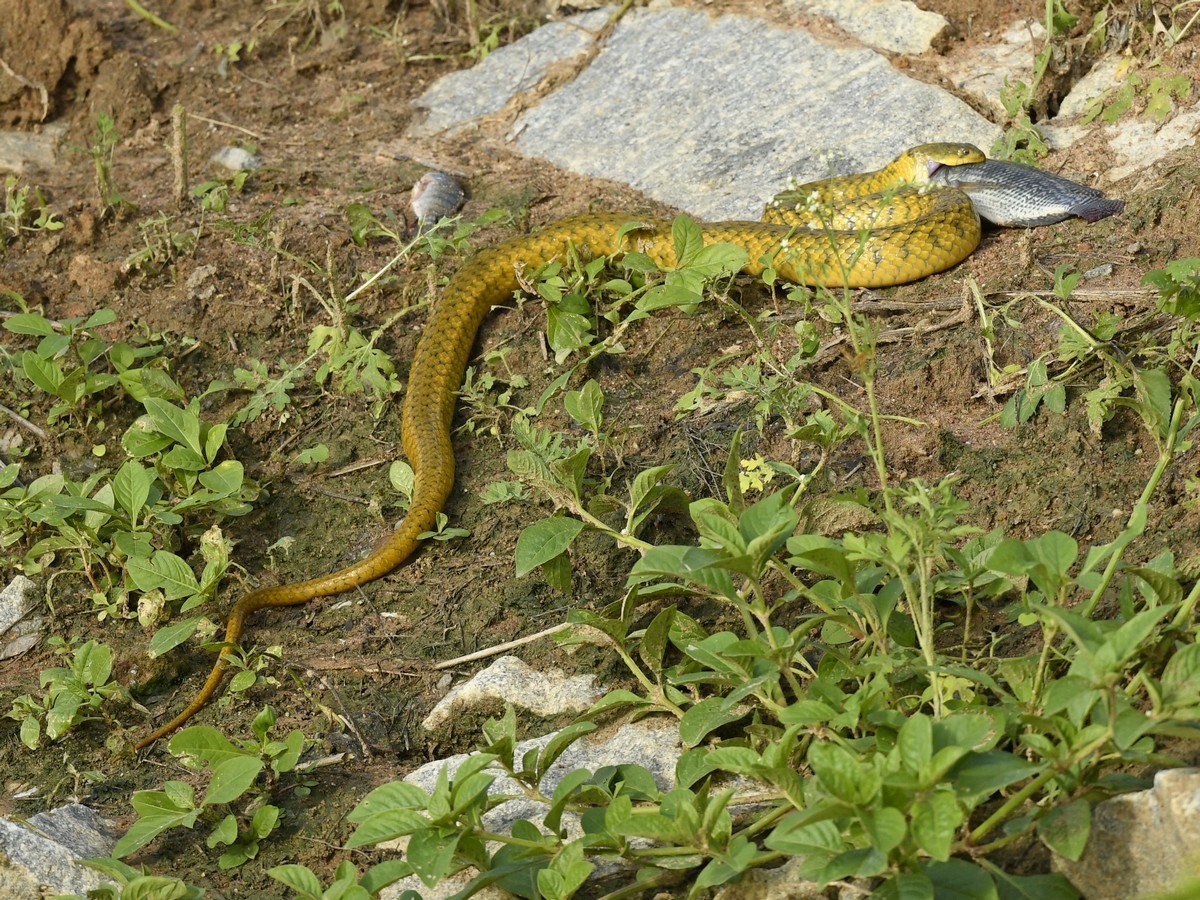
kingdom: Animalia
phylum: Chordata
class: Squamata
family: Colubridae
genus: Fowlea
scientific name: Fowlea piscator
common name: Asiatic water snake
